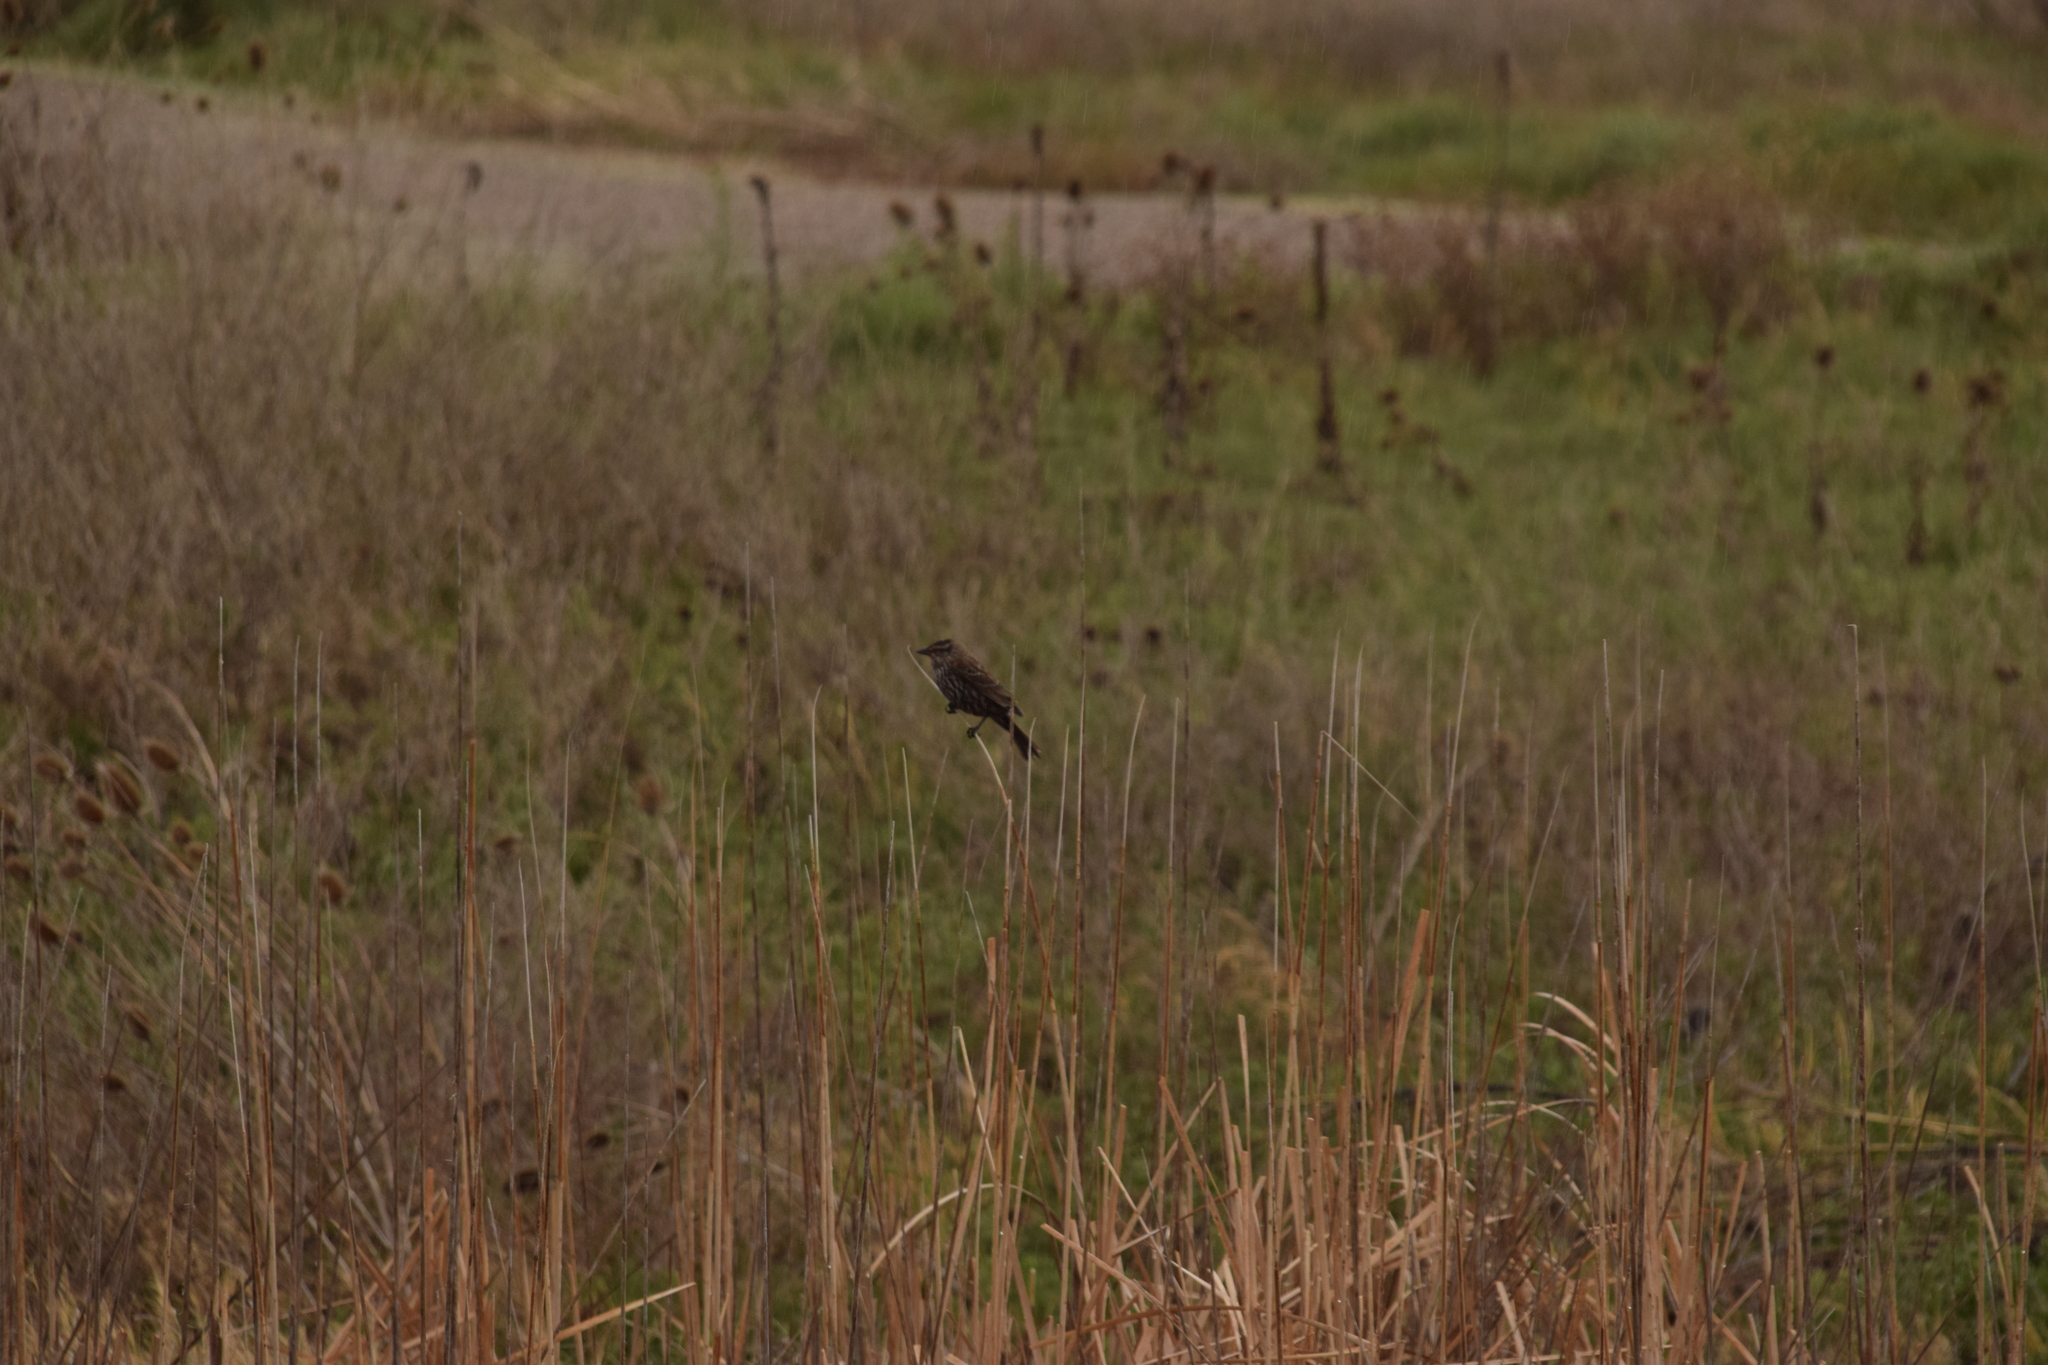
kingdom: Animalia
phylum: Chordata
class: Aves
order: Passeriformes
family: Icteridae
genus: Agelaius
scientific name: Agelaius phoeniceus
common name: Red-winged blackbird
